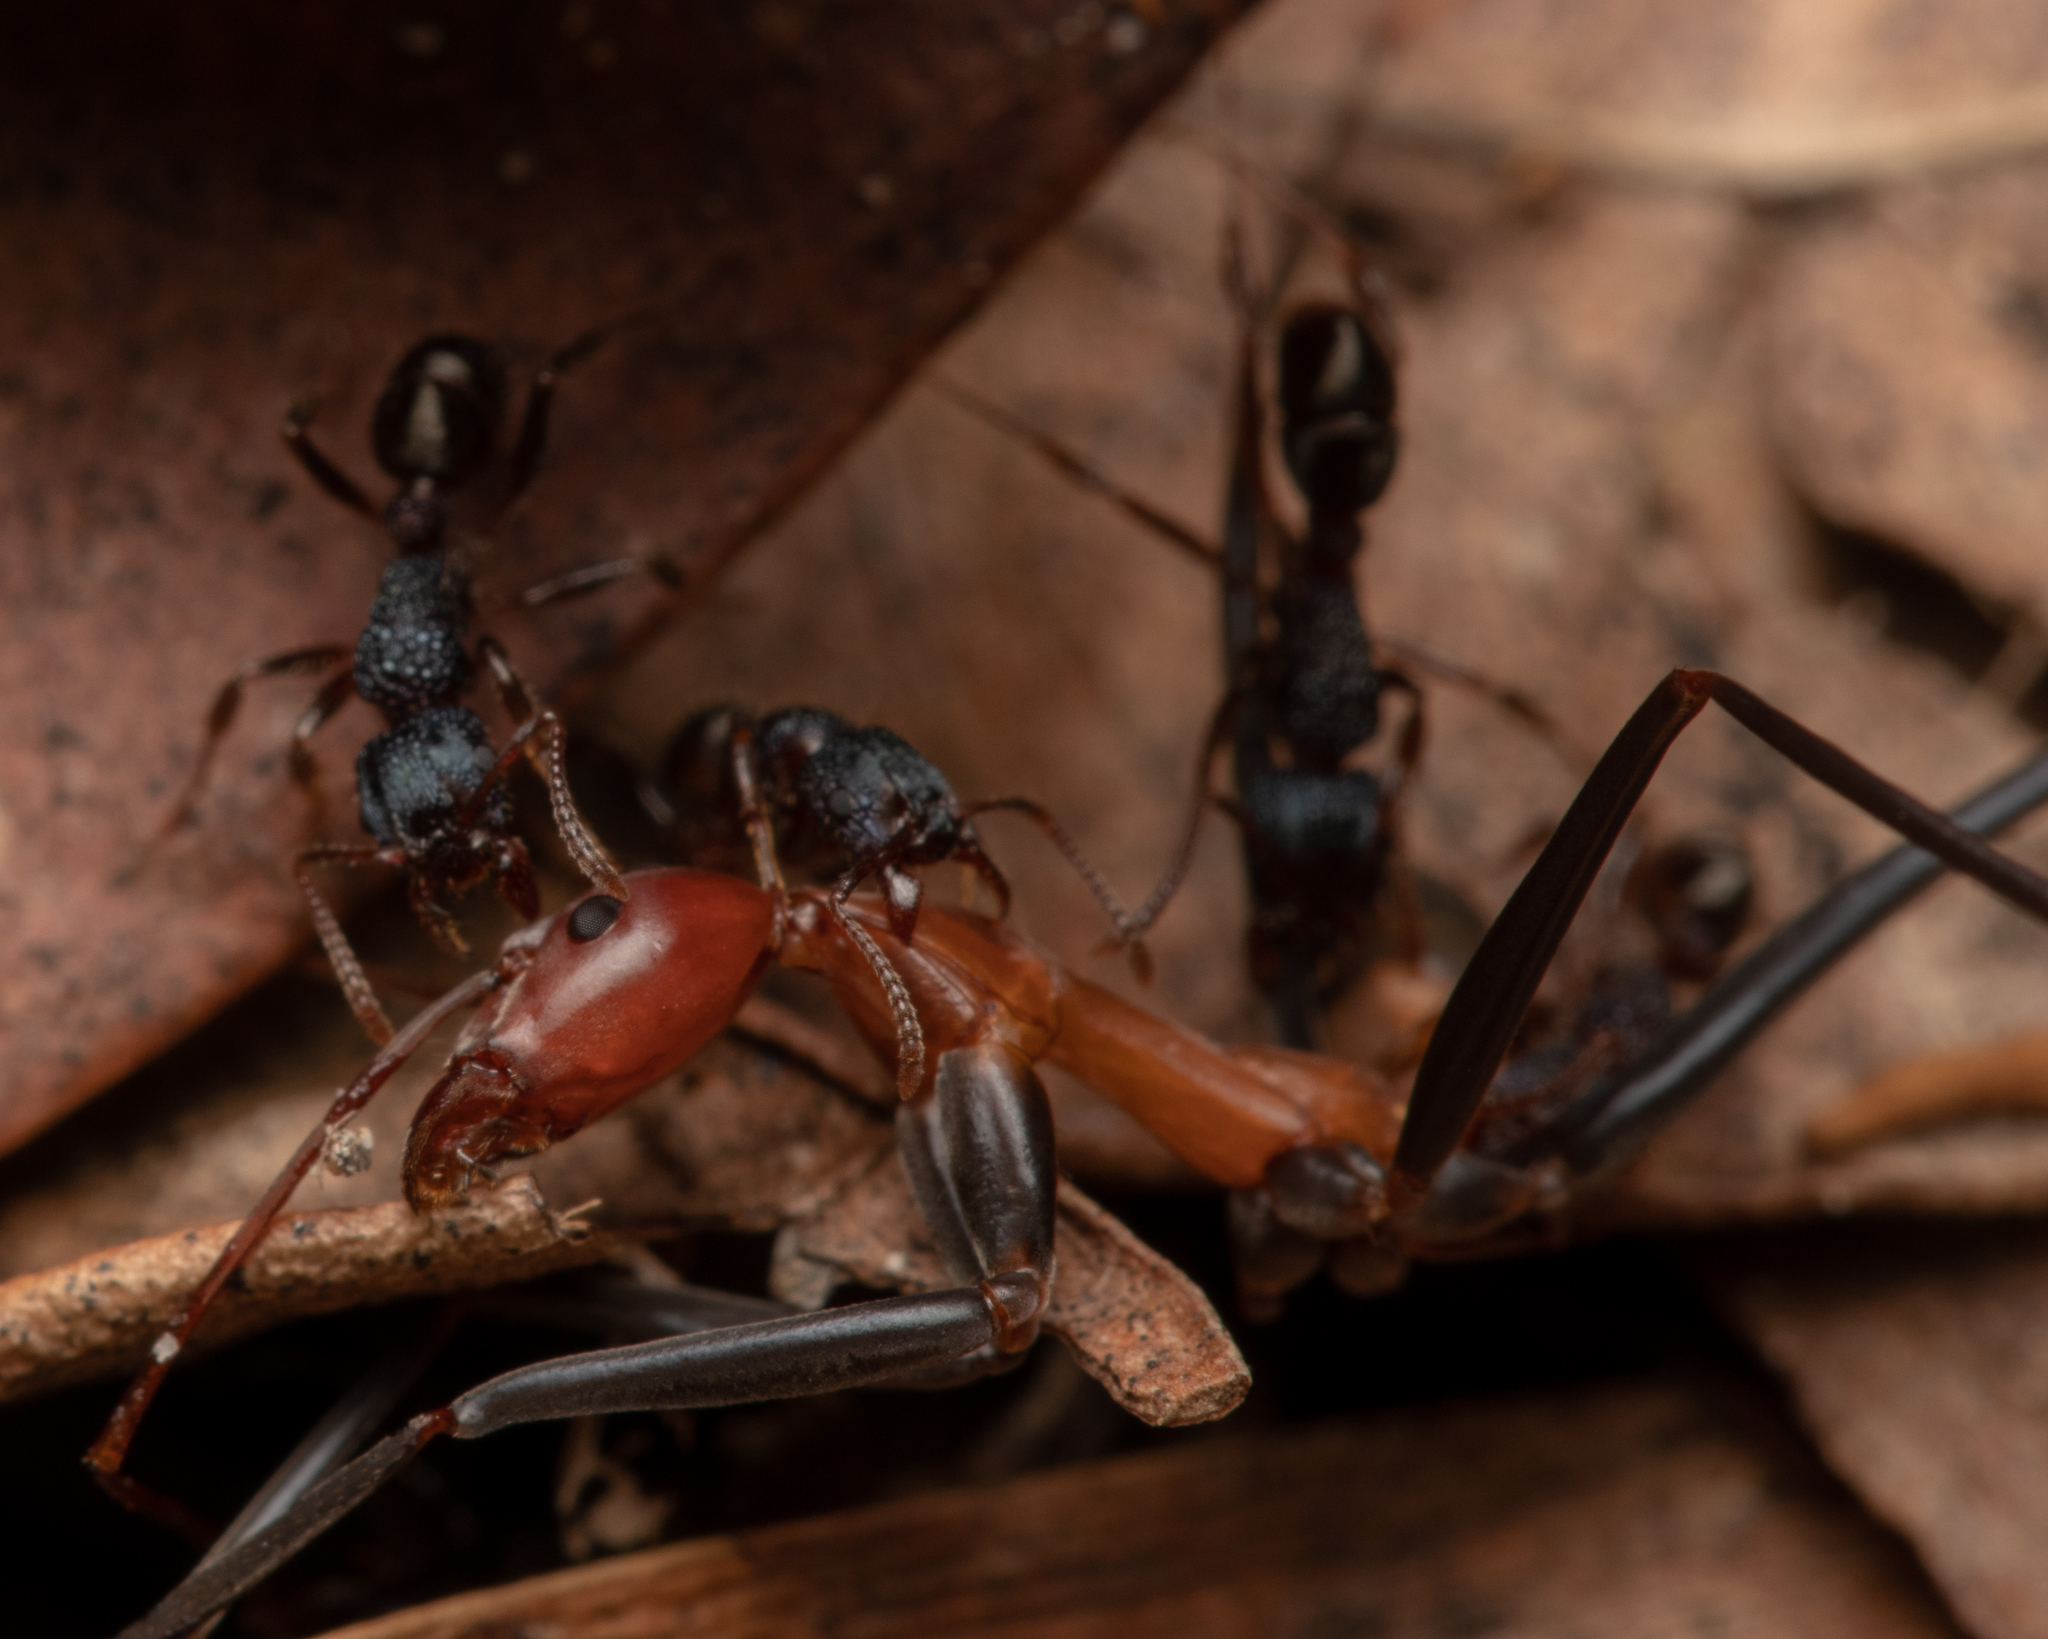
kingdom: Animalia
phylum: Arthropoda
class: Insecta
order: Hymenoptera
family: Formicidae
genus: Rhytidoponera
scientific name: Rhytidoponera victoriae
